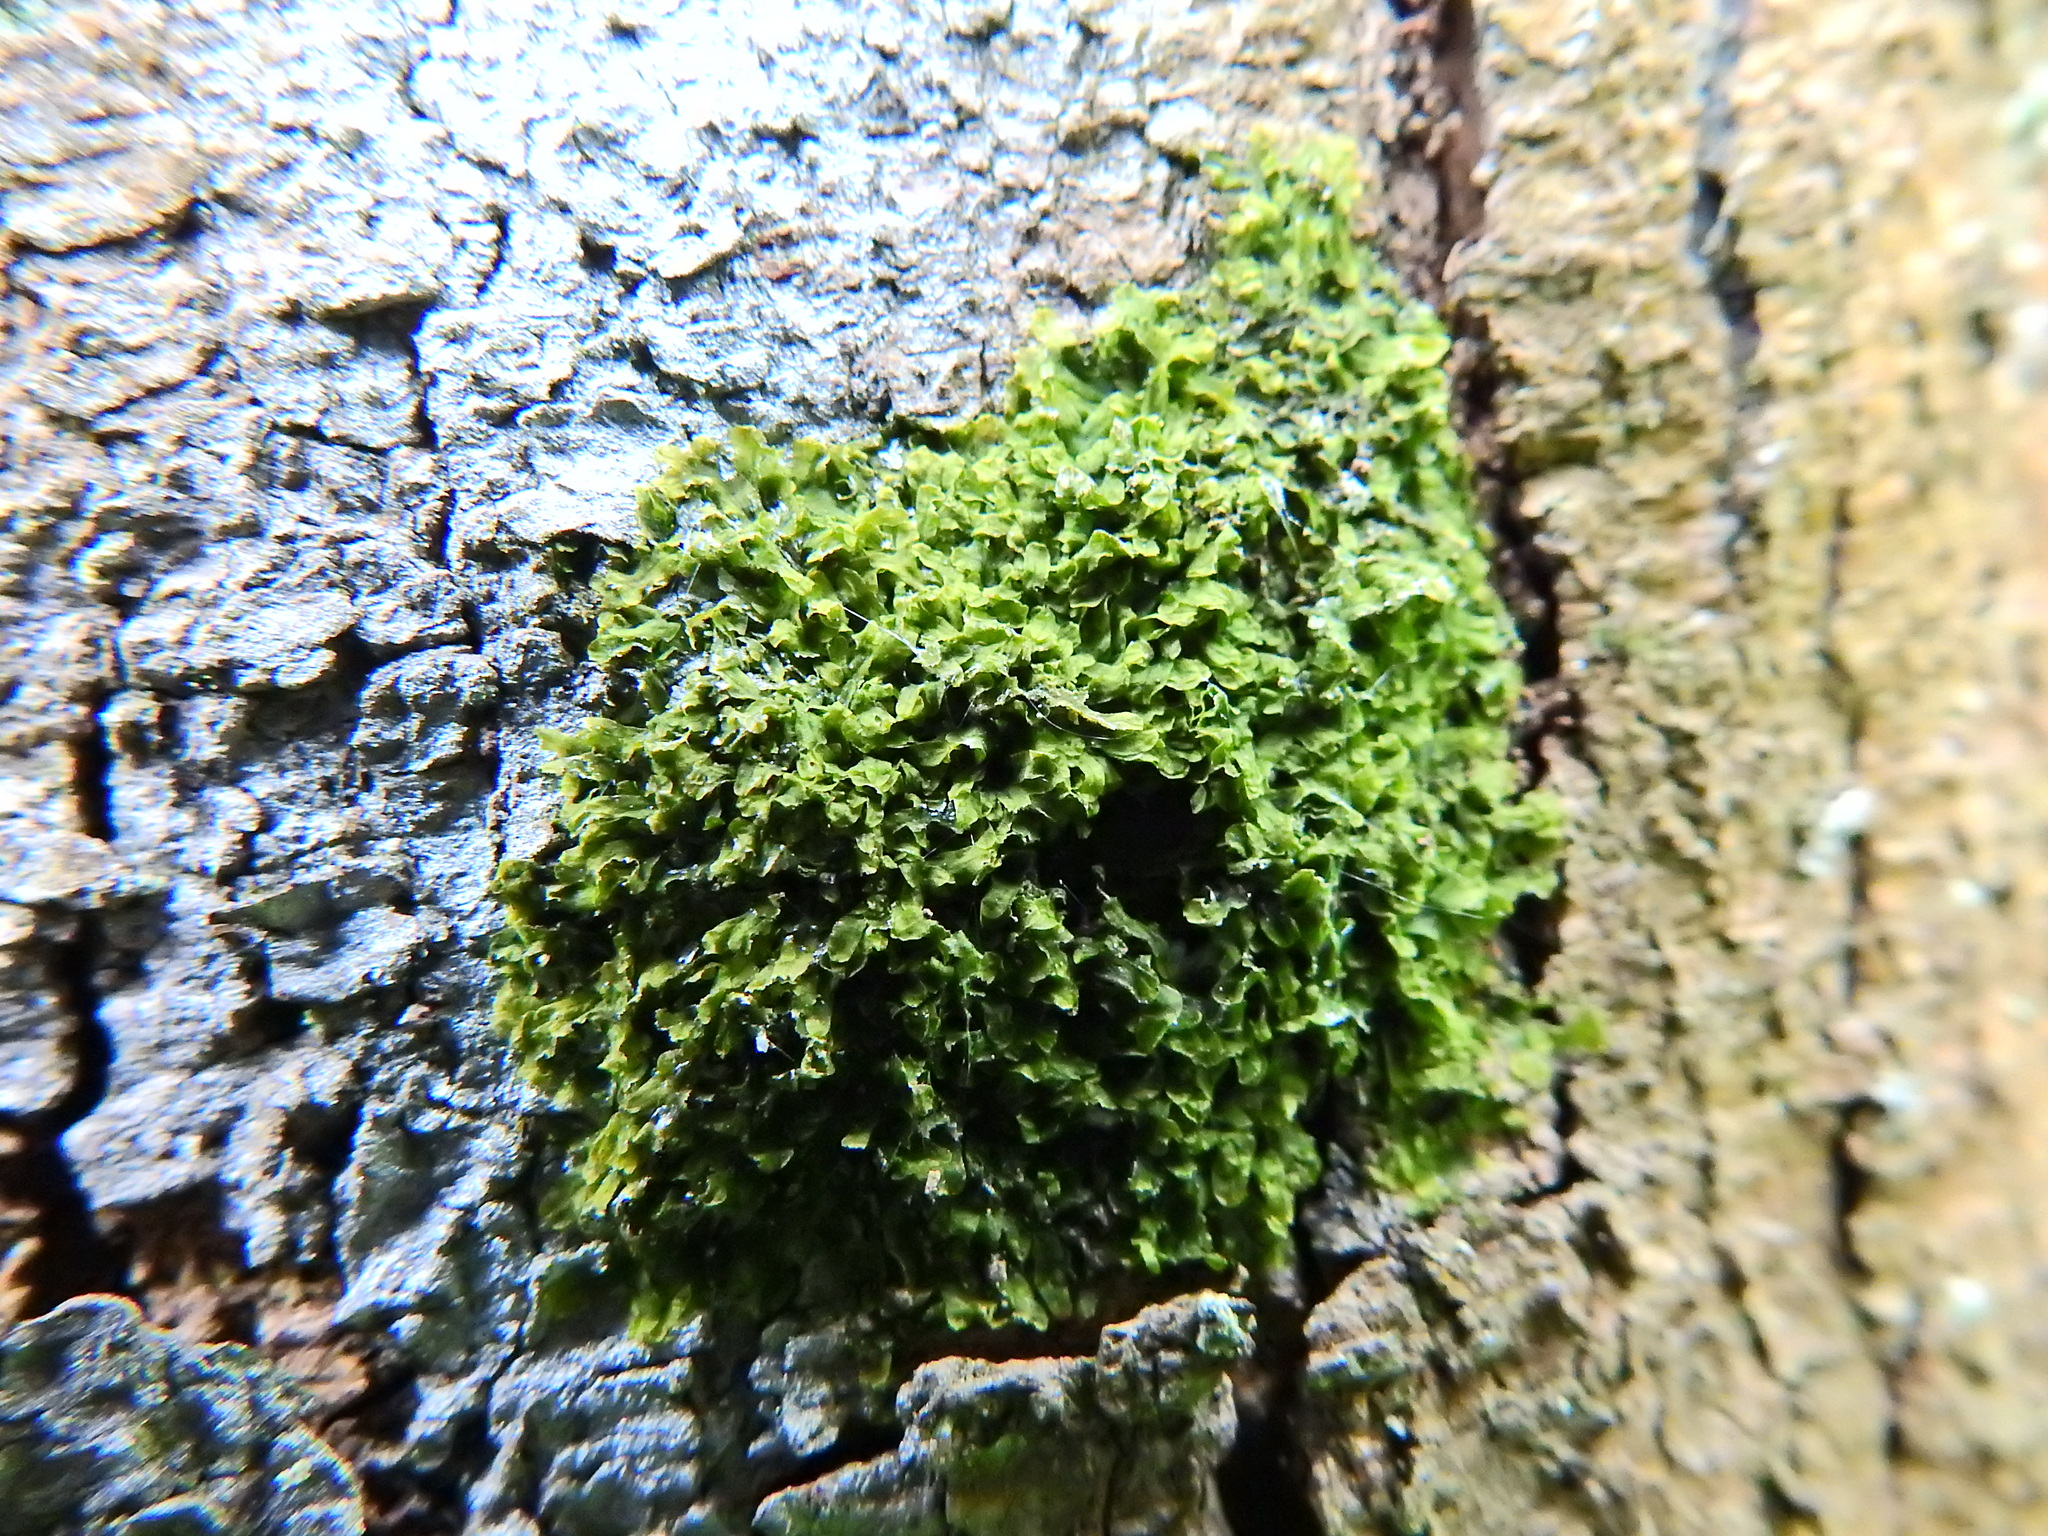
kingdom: Plantae
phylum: Marchantiophyta
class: Jungermanniopsida
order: Metzgeriales
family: Metzgeriaceae
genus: Metzgeria
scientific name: Metzgeria furcata
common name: Forked veilwort
